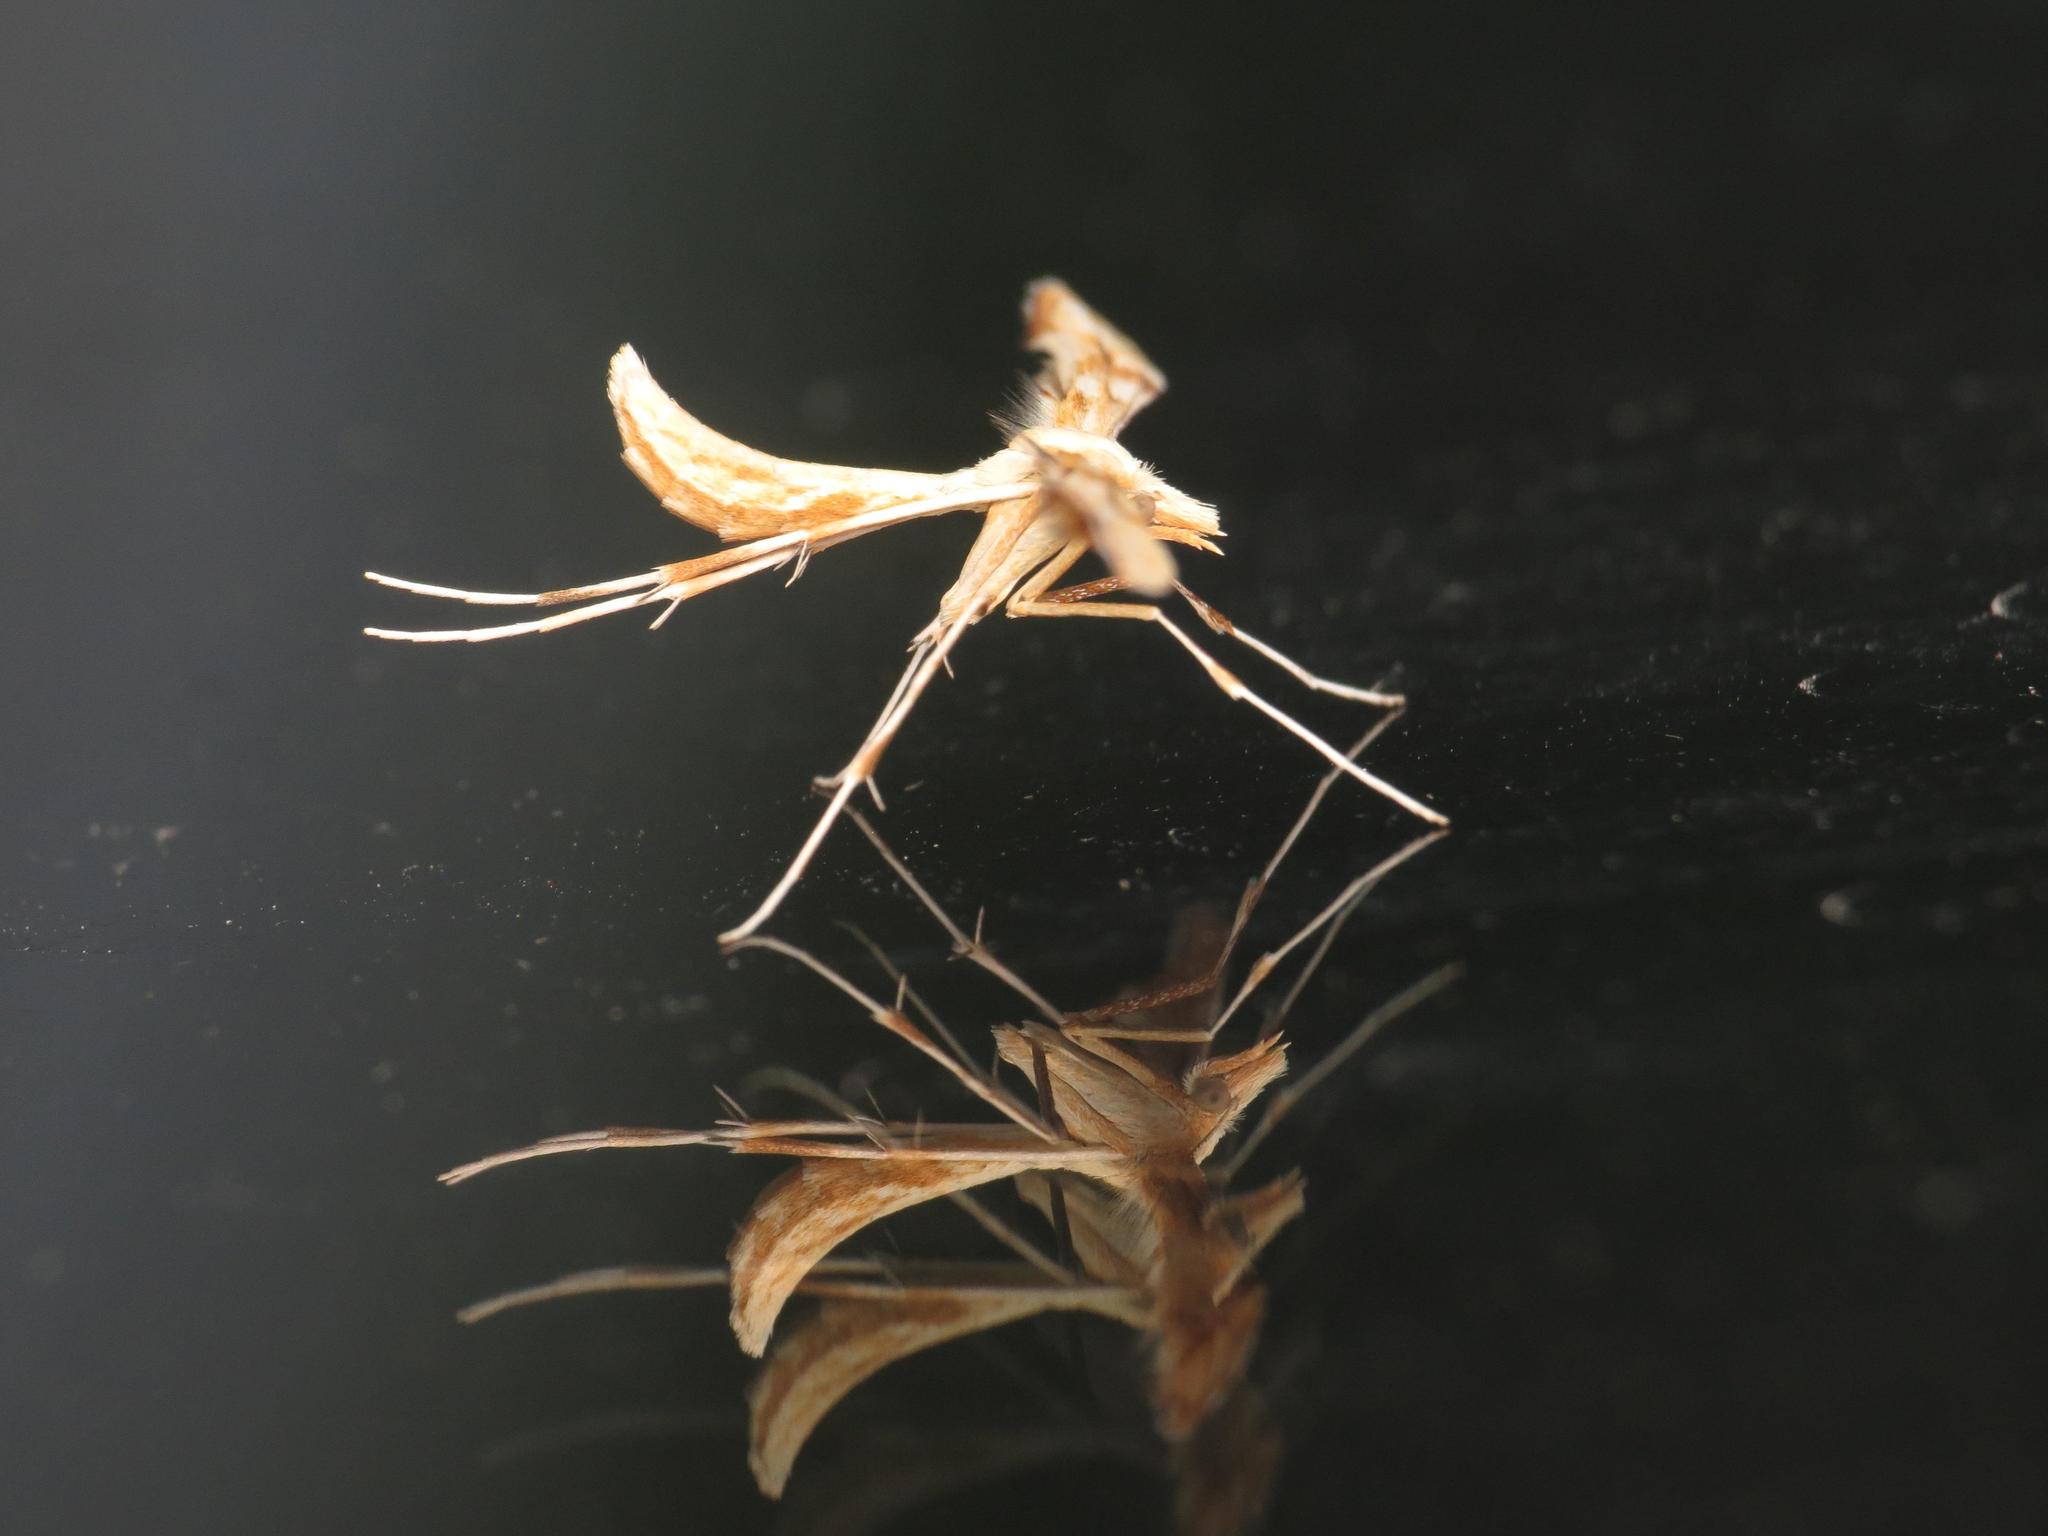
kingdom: Animalia
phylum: Arthropoda
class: Insecta
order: Lepidoptera
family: Pterophoridae
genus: Gillmeria
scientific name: Gillmeria pallidactyla
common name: Yarrow plume
